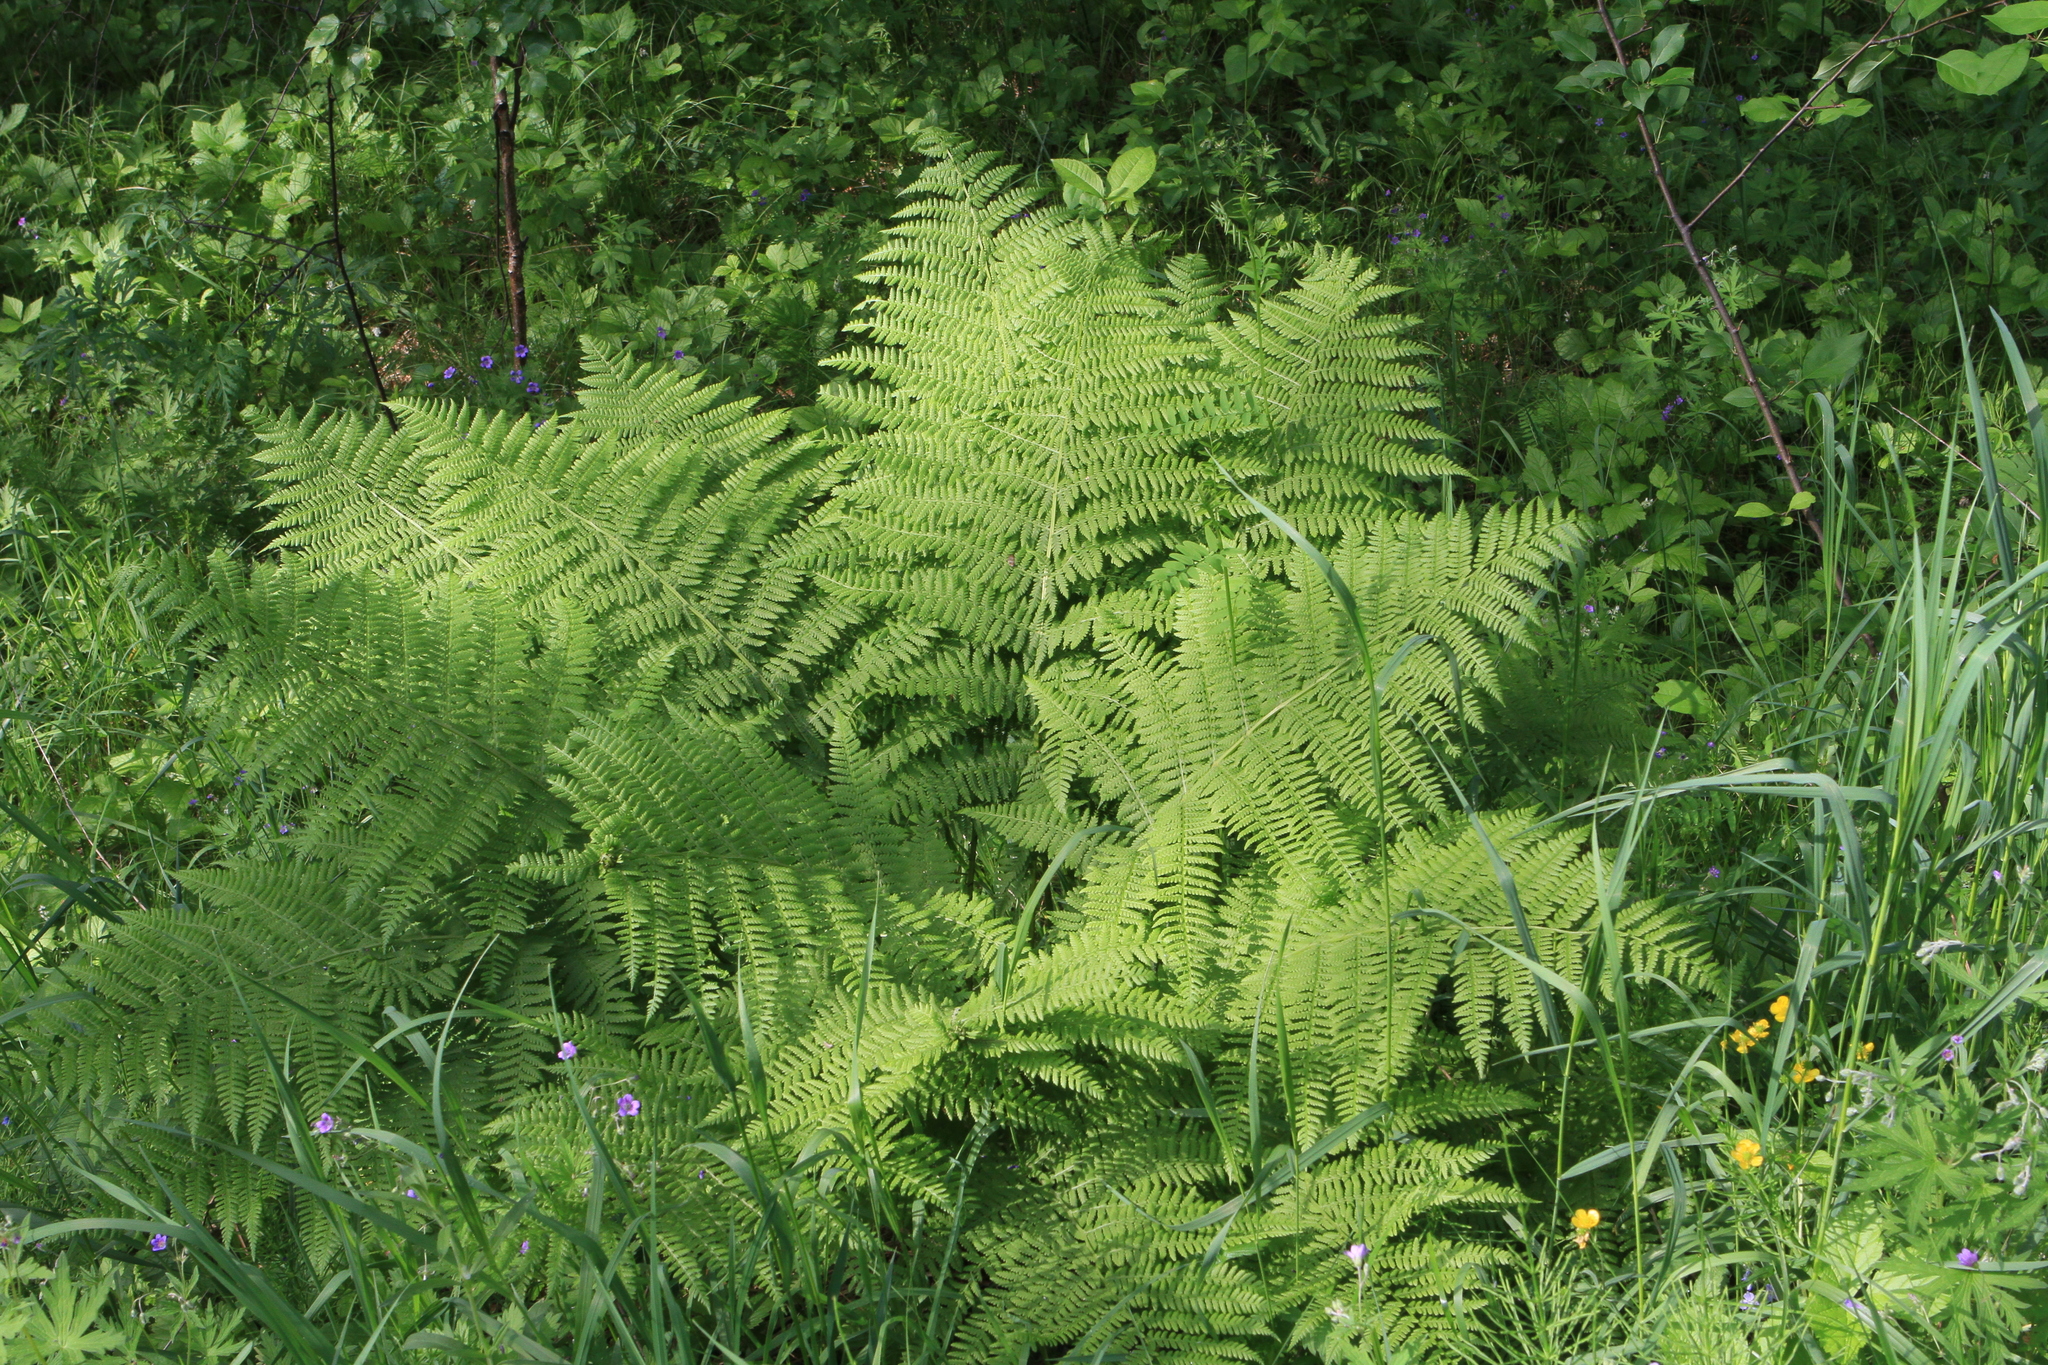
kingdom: Plantae
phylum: Tracheophyta
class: Polypodiopsida
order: Polypodiales
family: Athyriaceae
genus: Athyrium
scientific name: Athyrium filix-femina
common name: Lady fern
